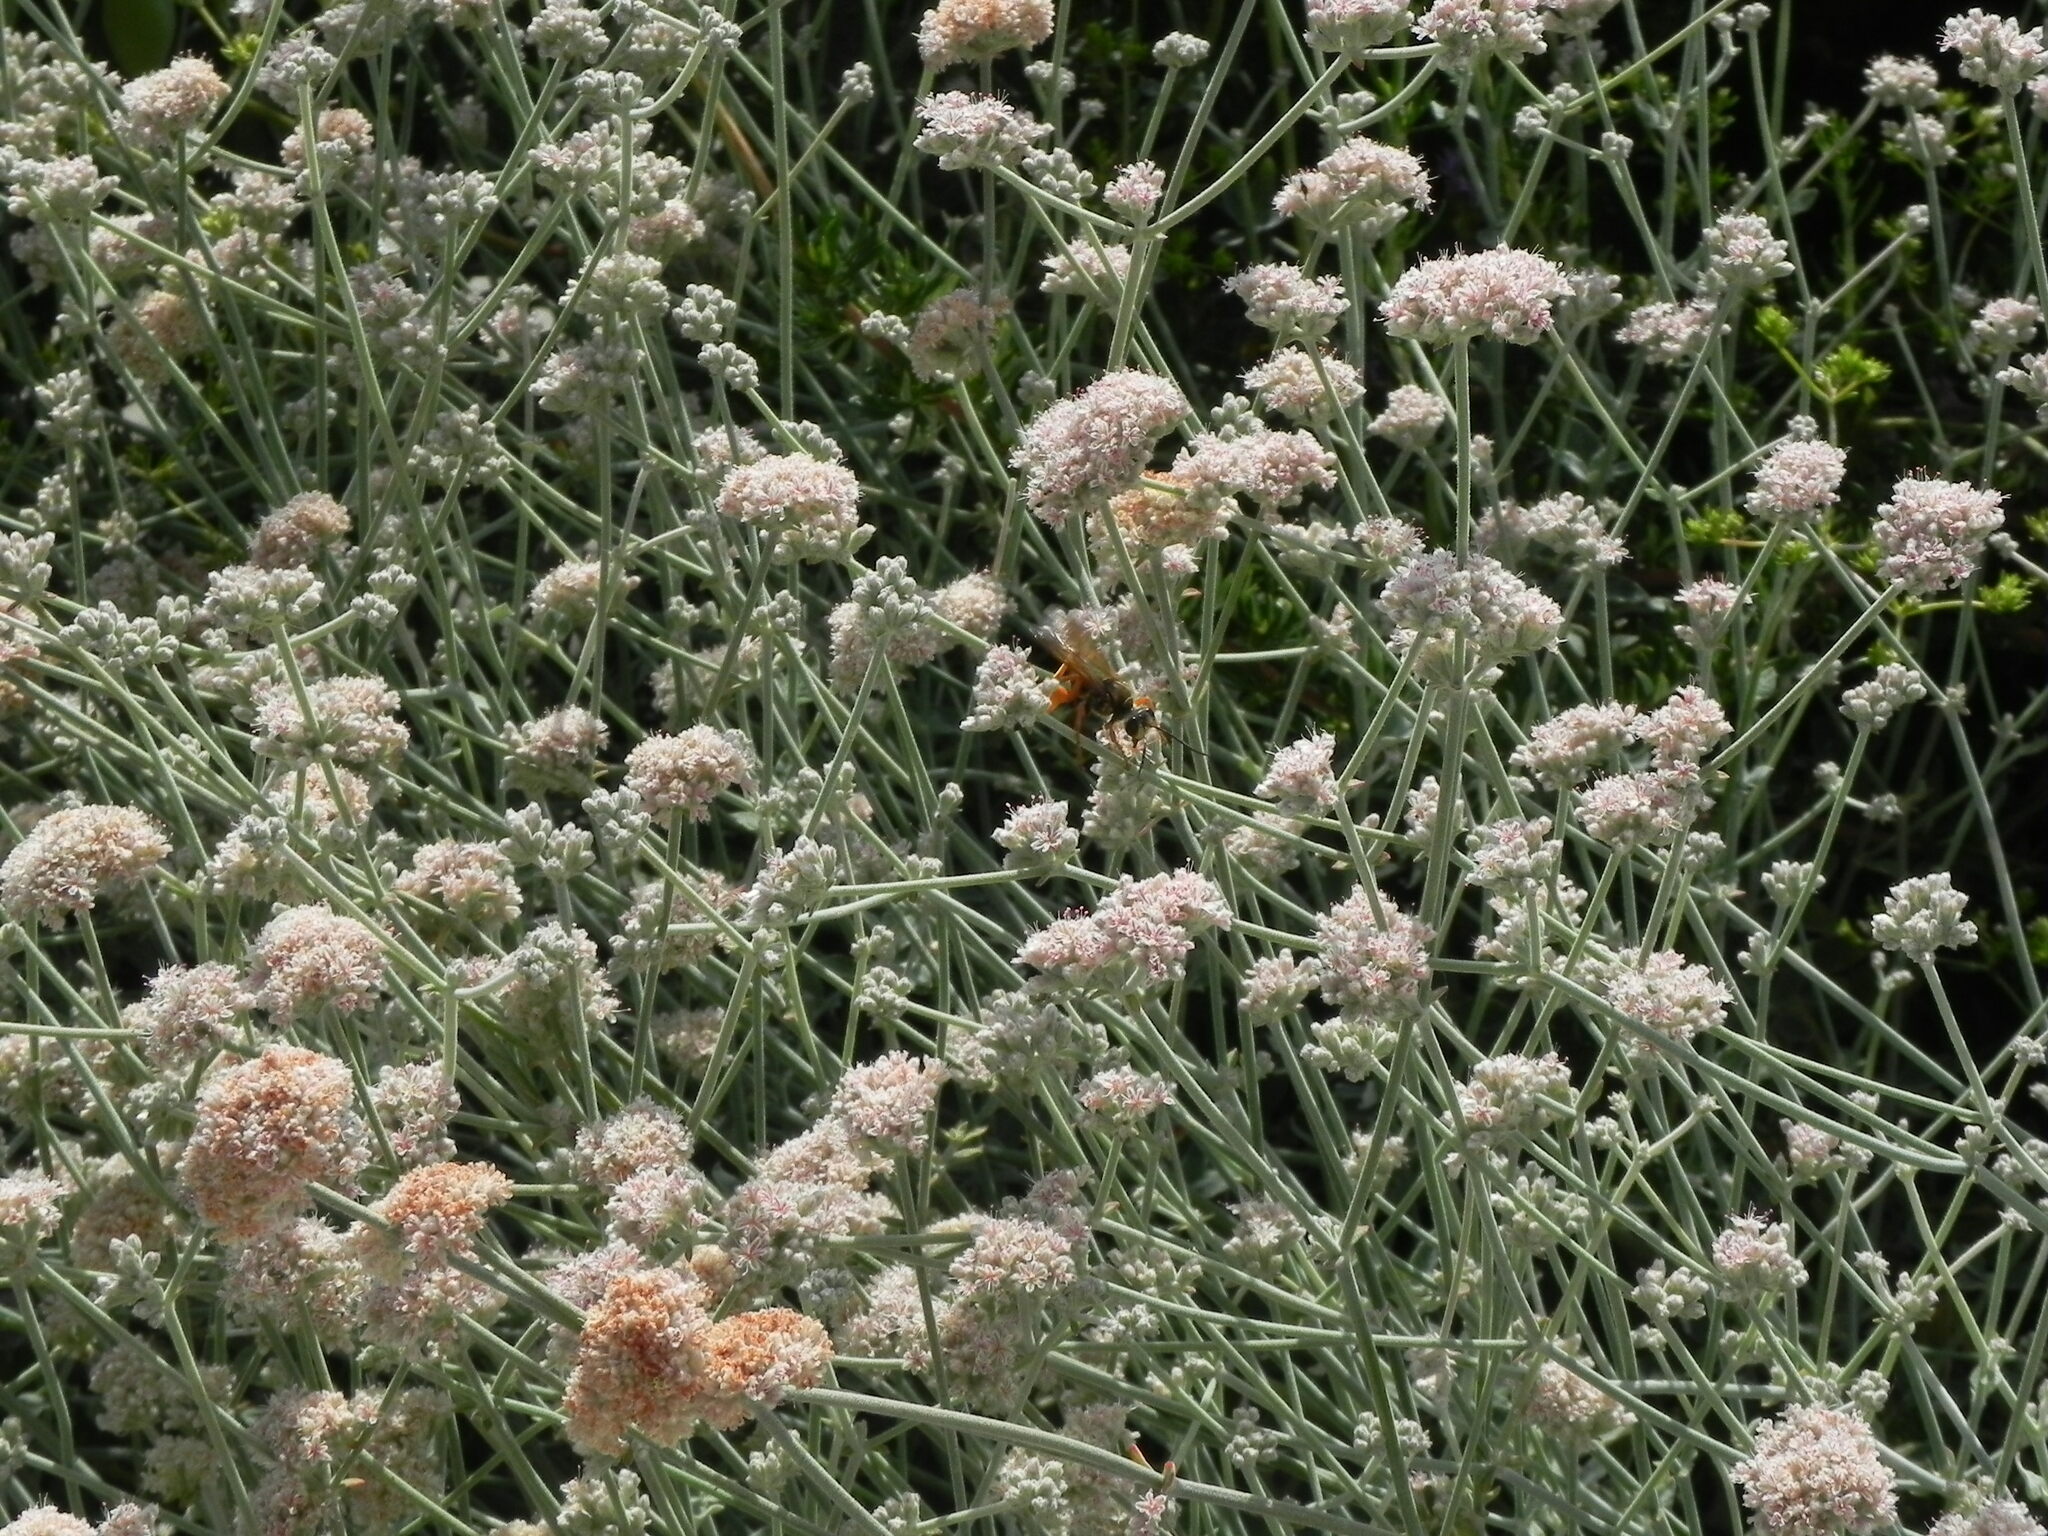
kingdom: Animalia
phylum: Arthropoda
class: Insecta
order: Hymenoptera
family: Sphecidae
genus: Sphex
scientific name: Sphex ichneumoneus
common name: Great golden digger wasp
